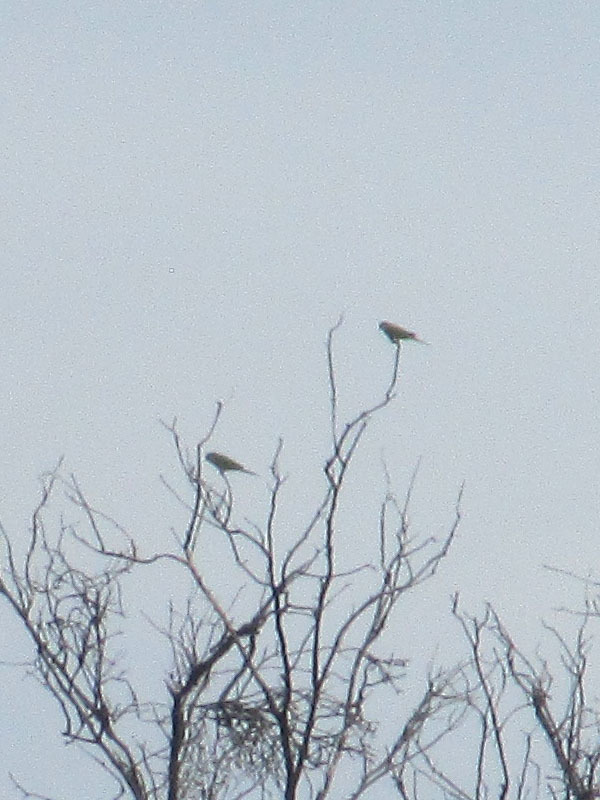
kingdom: Animalia
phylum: Chordata
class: Aves
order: Psittaciformes
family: Psittacidae
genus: Myiopsitta
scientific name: Myiopsitta monachus
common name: Monk parakeet
